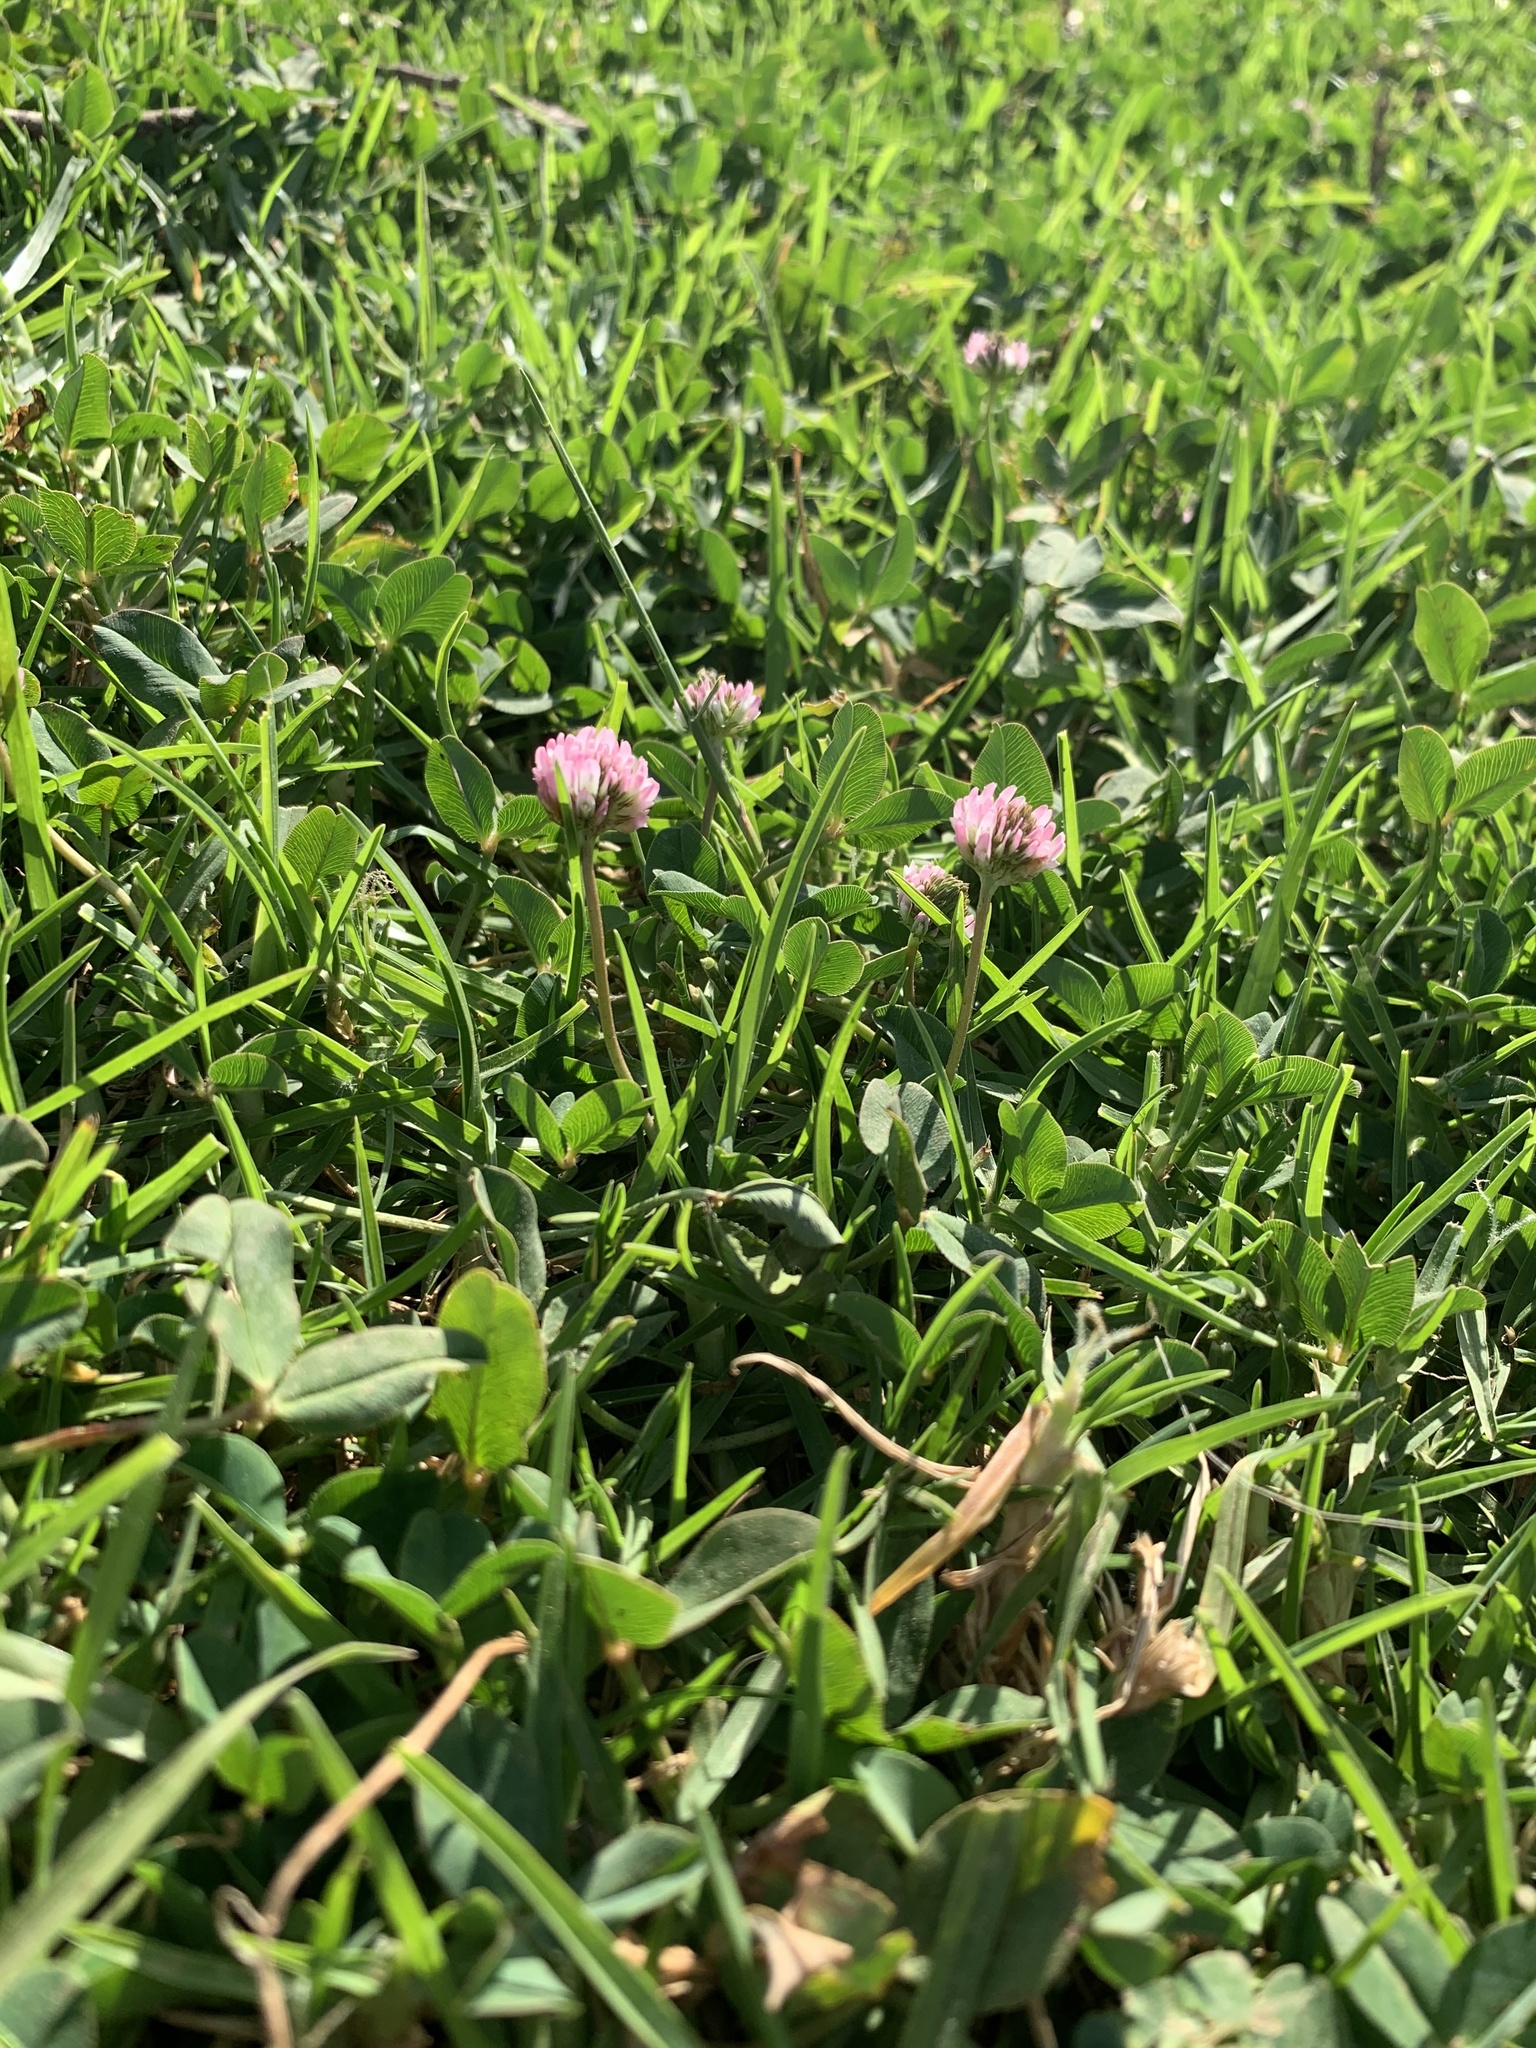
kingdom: Plantae
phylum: Tracheophyta
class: Magnoliopsida
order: Fabales
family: Fabaceae
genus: Trifolium
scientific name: Trifolium fragiferum
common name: Strawberry clover
